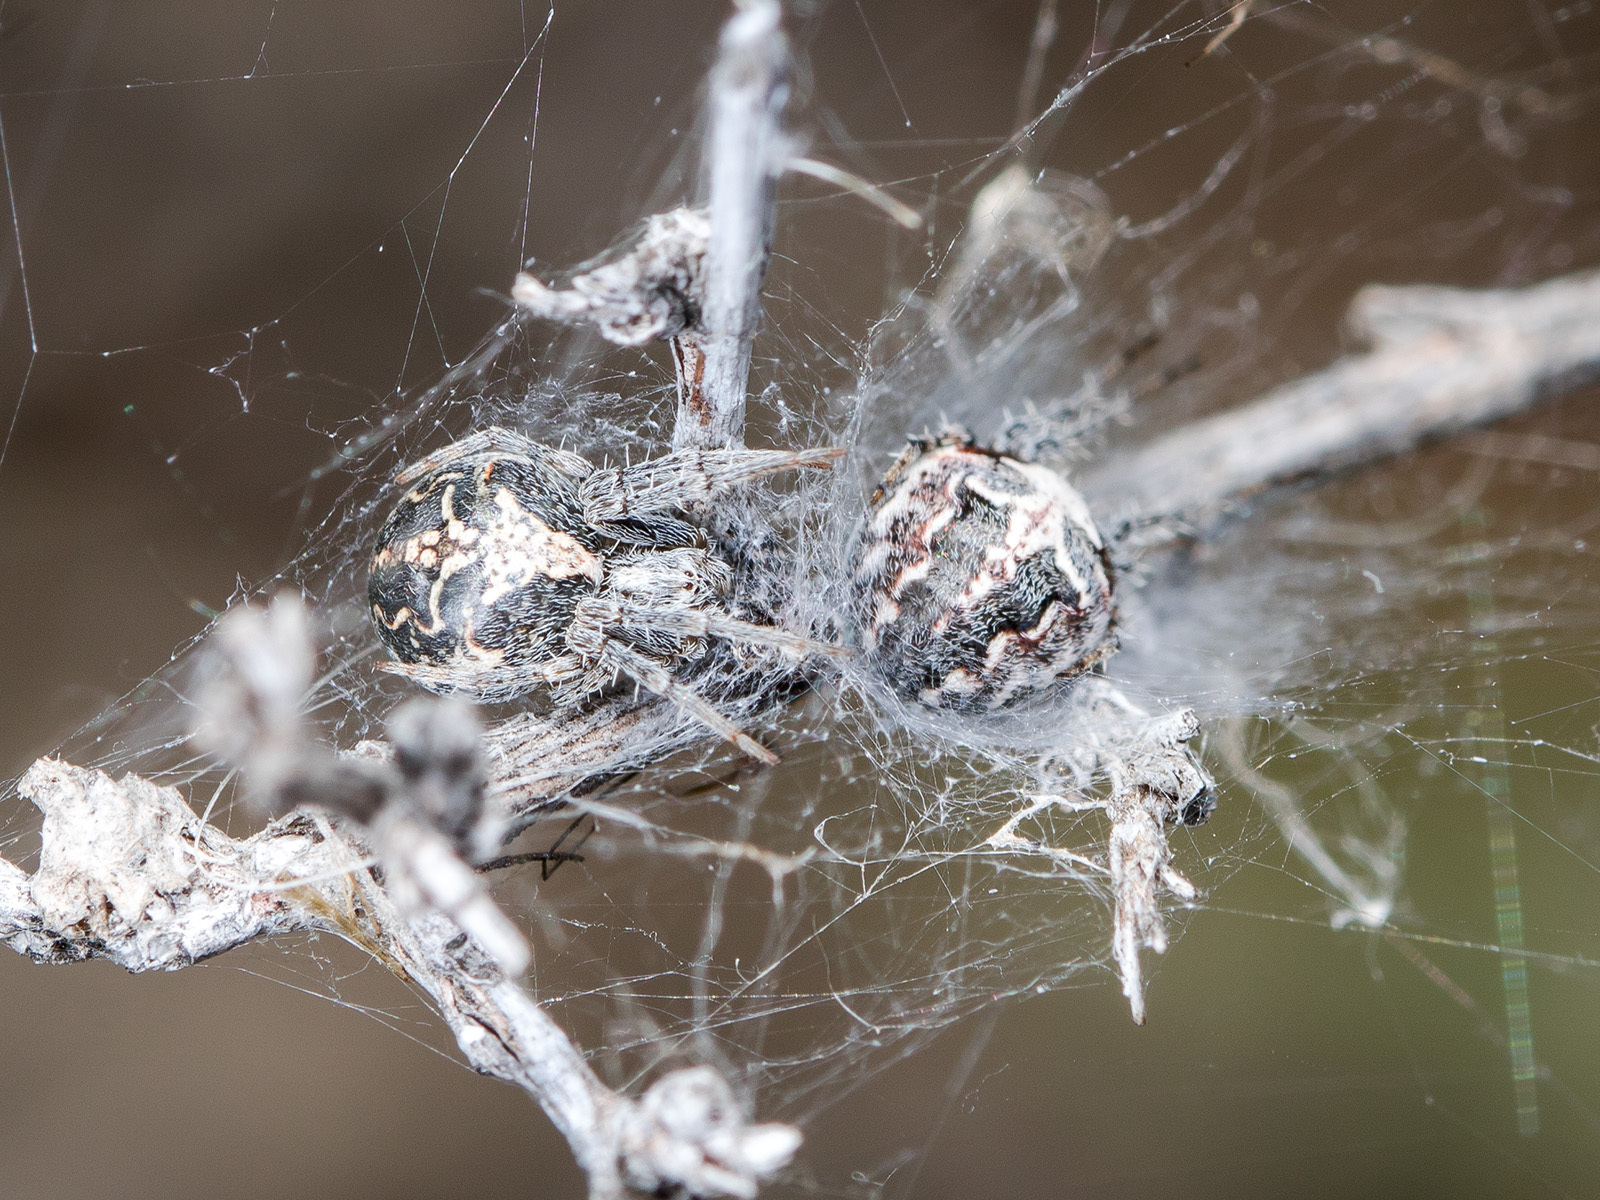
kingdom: Animalia
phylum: Arthropoda
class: Arachnida
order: Araneae
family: Araneidae
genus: Araneus
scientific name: Araneus pallasi
